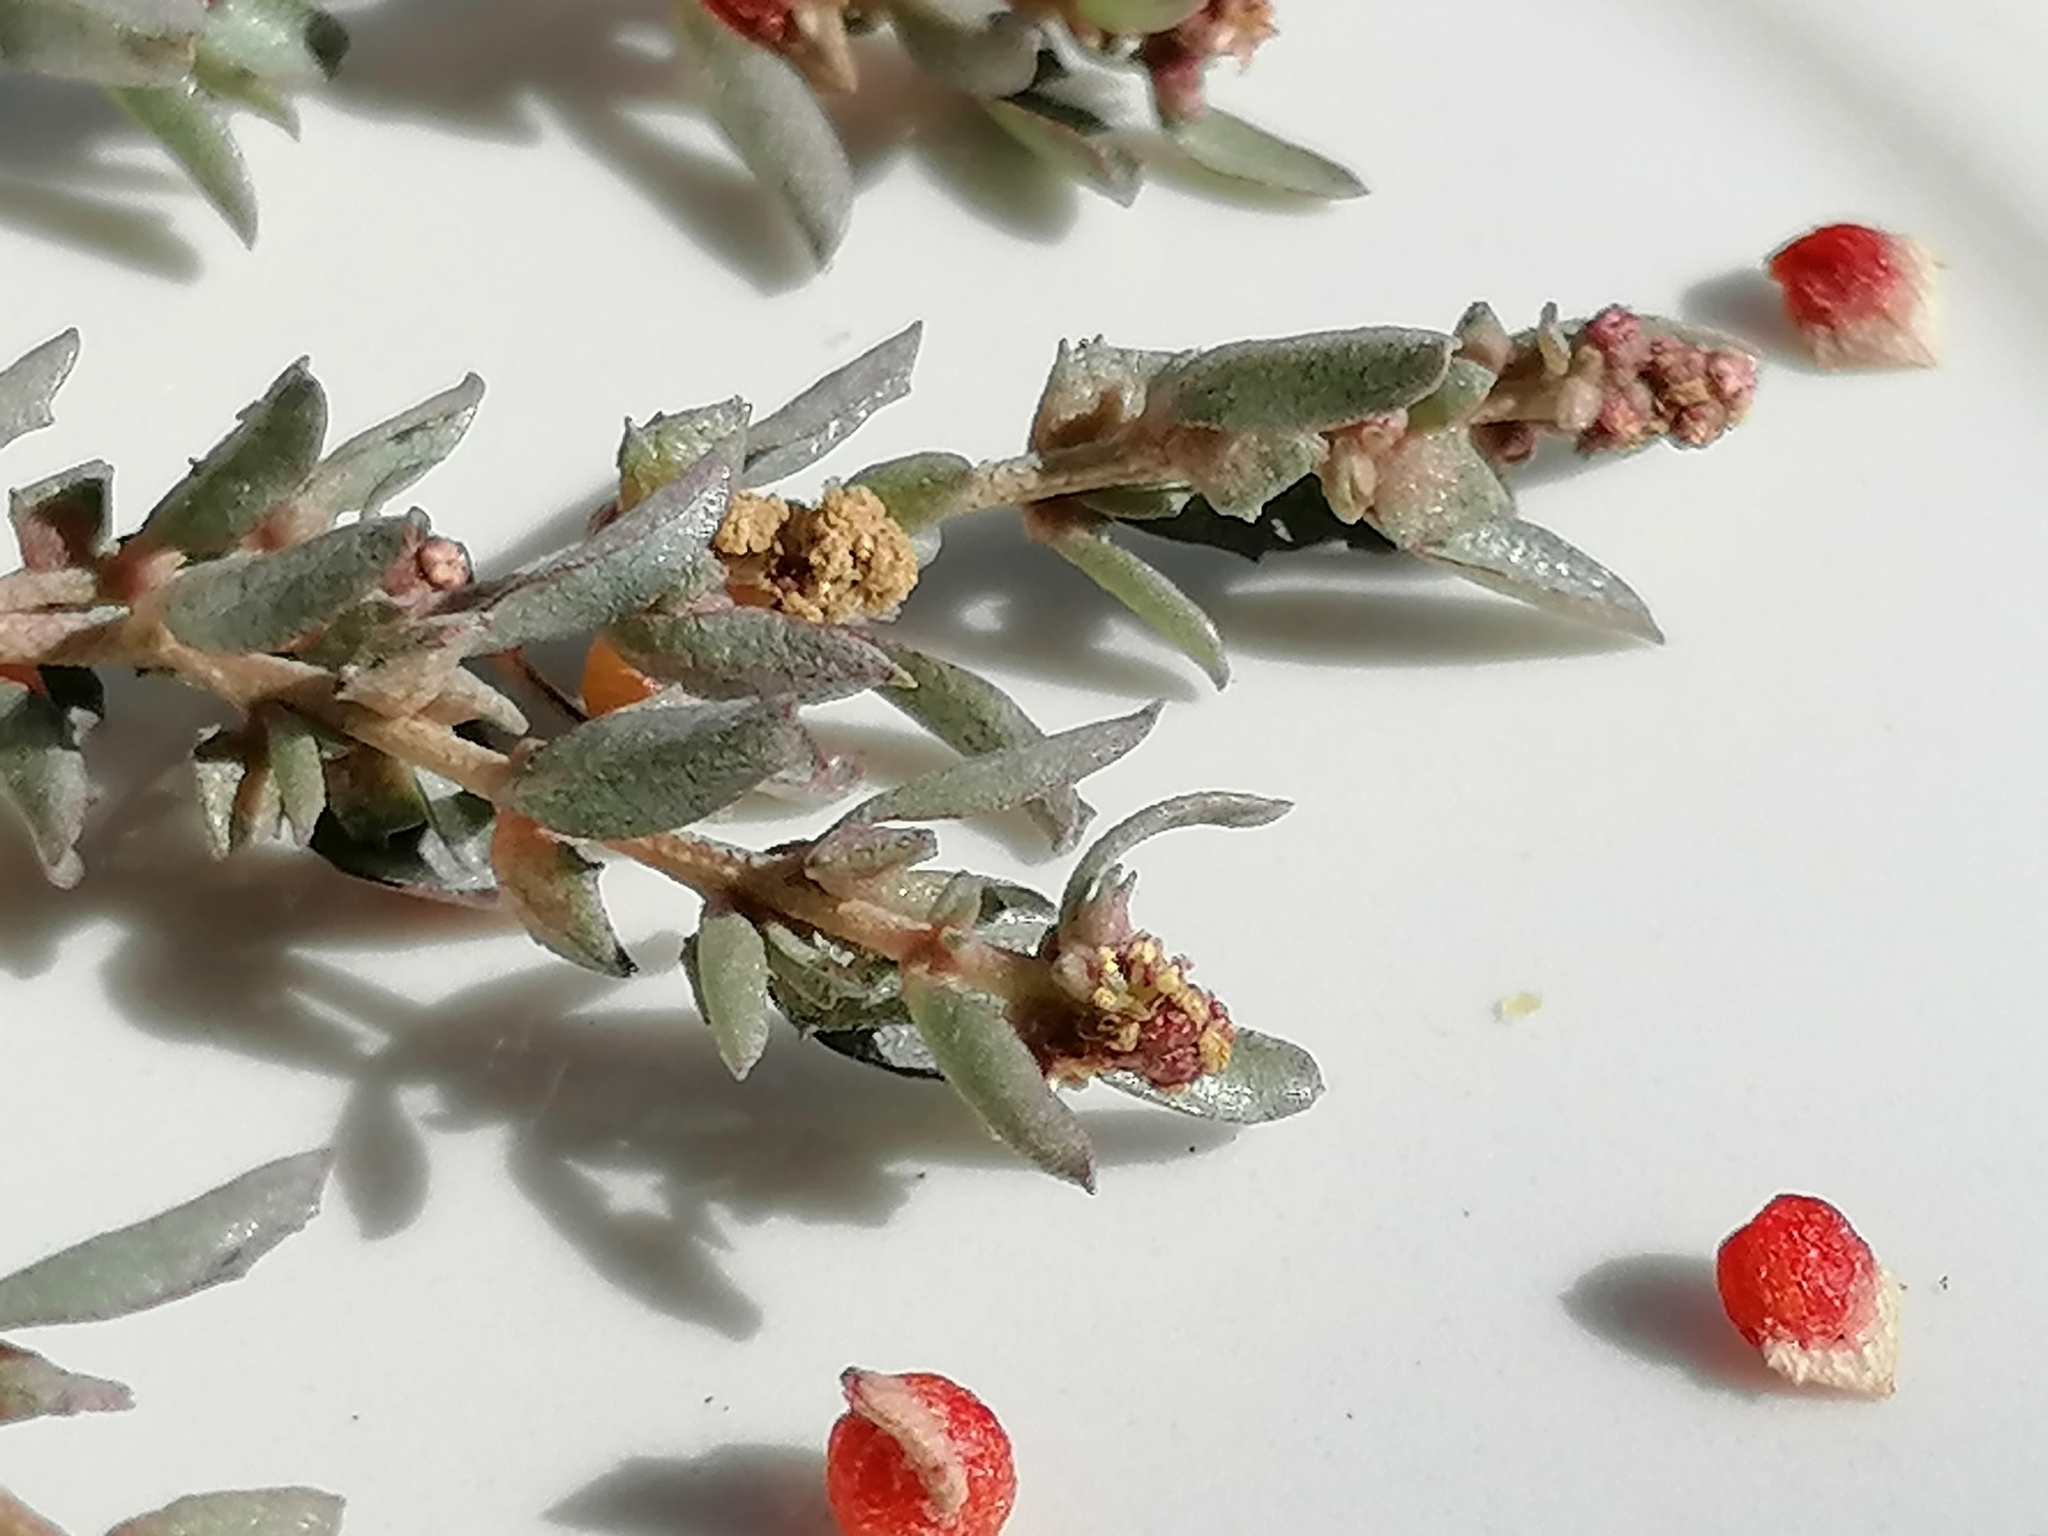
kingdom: Plantae
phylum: Tracheophyta
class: Magnoliopsida
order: Caryophyllales
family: Amaranthaceae
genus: Atriplex
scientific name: Atriplex semibaccata
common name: Australian saltbush
